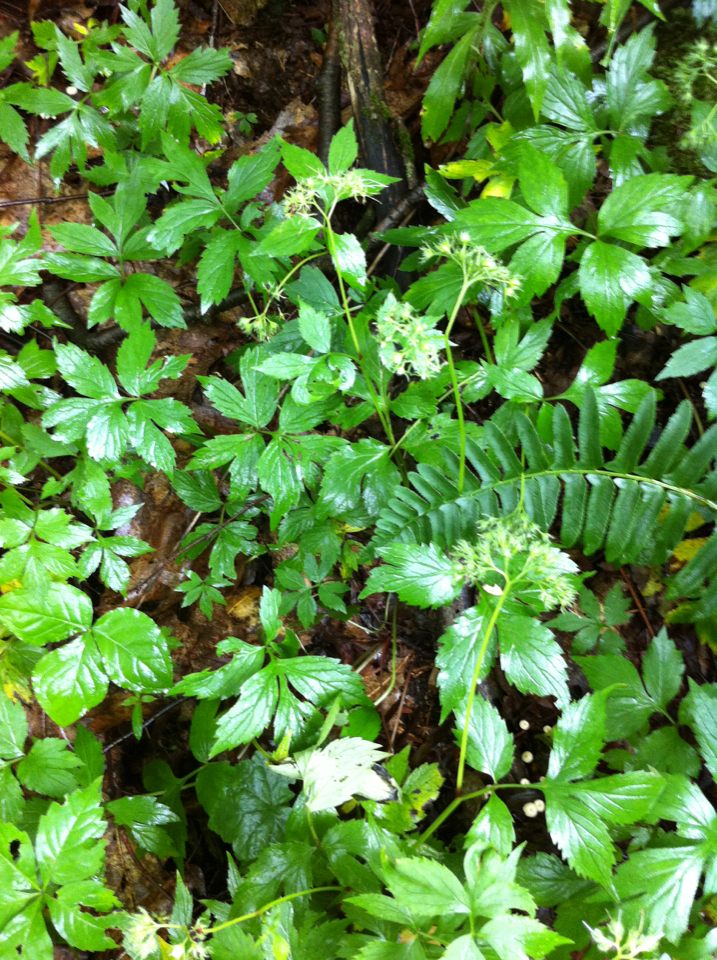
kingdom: Plantae
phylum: Tracheophyta
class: Magnoliopsida
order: Boraginales
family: Hydrophyllaceae
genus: Hydrophyllum
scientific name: Hydrophyllum virginianum
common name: Virginia waterleaf
